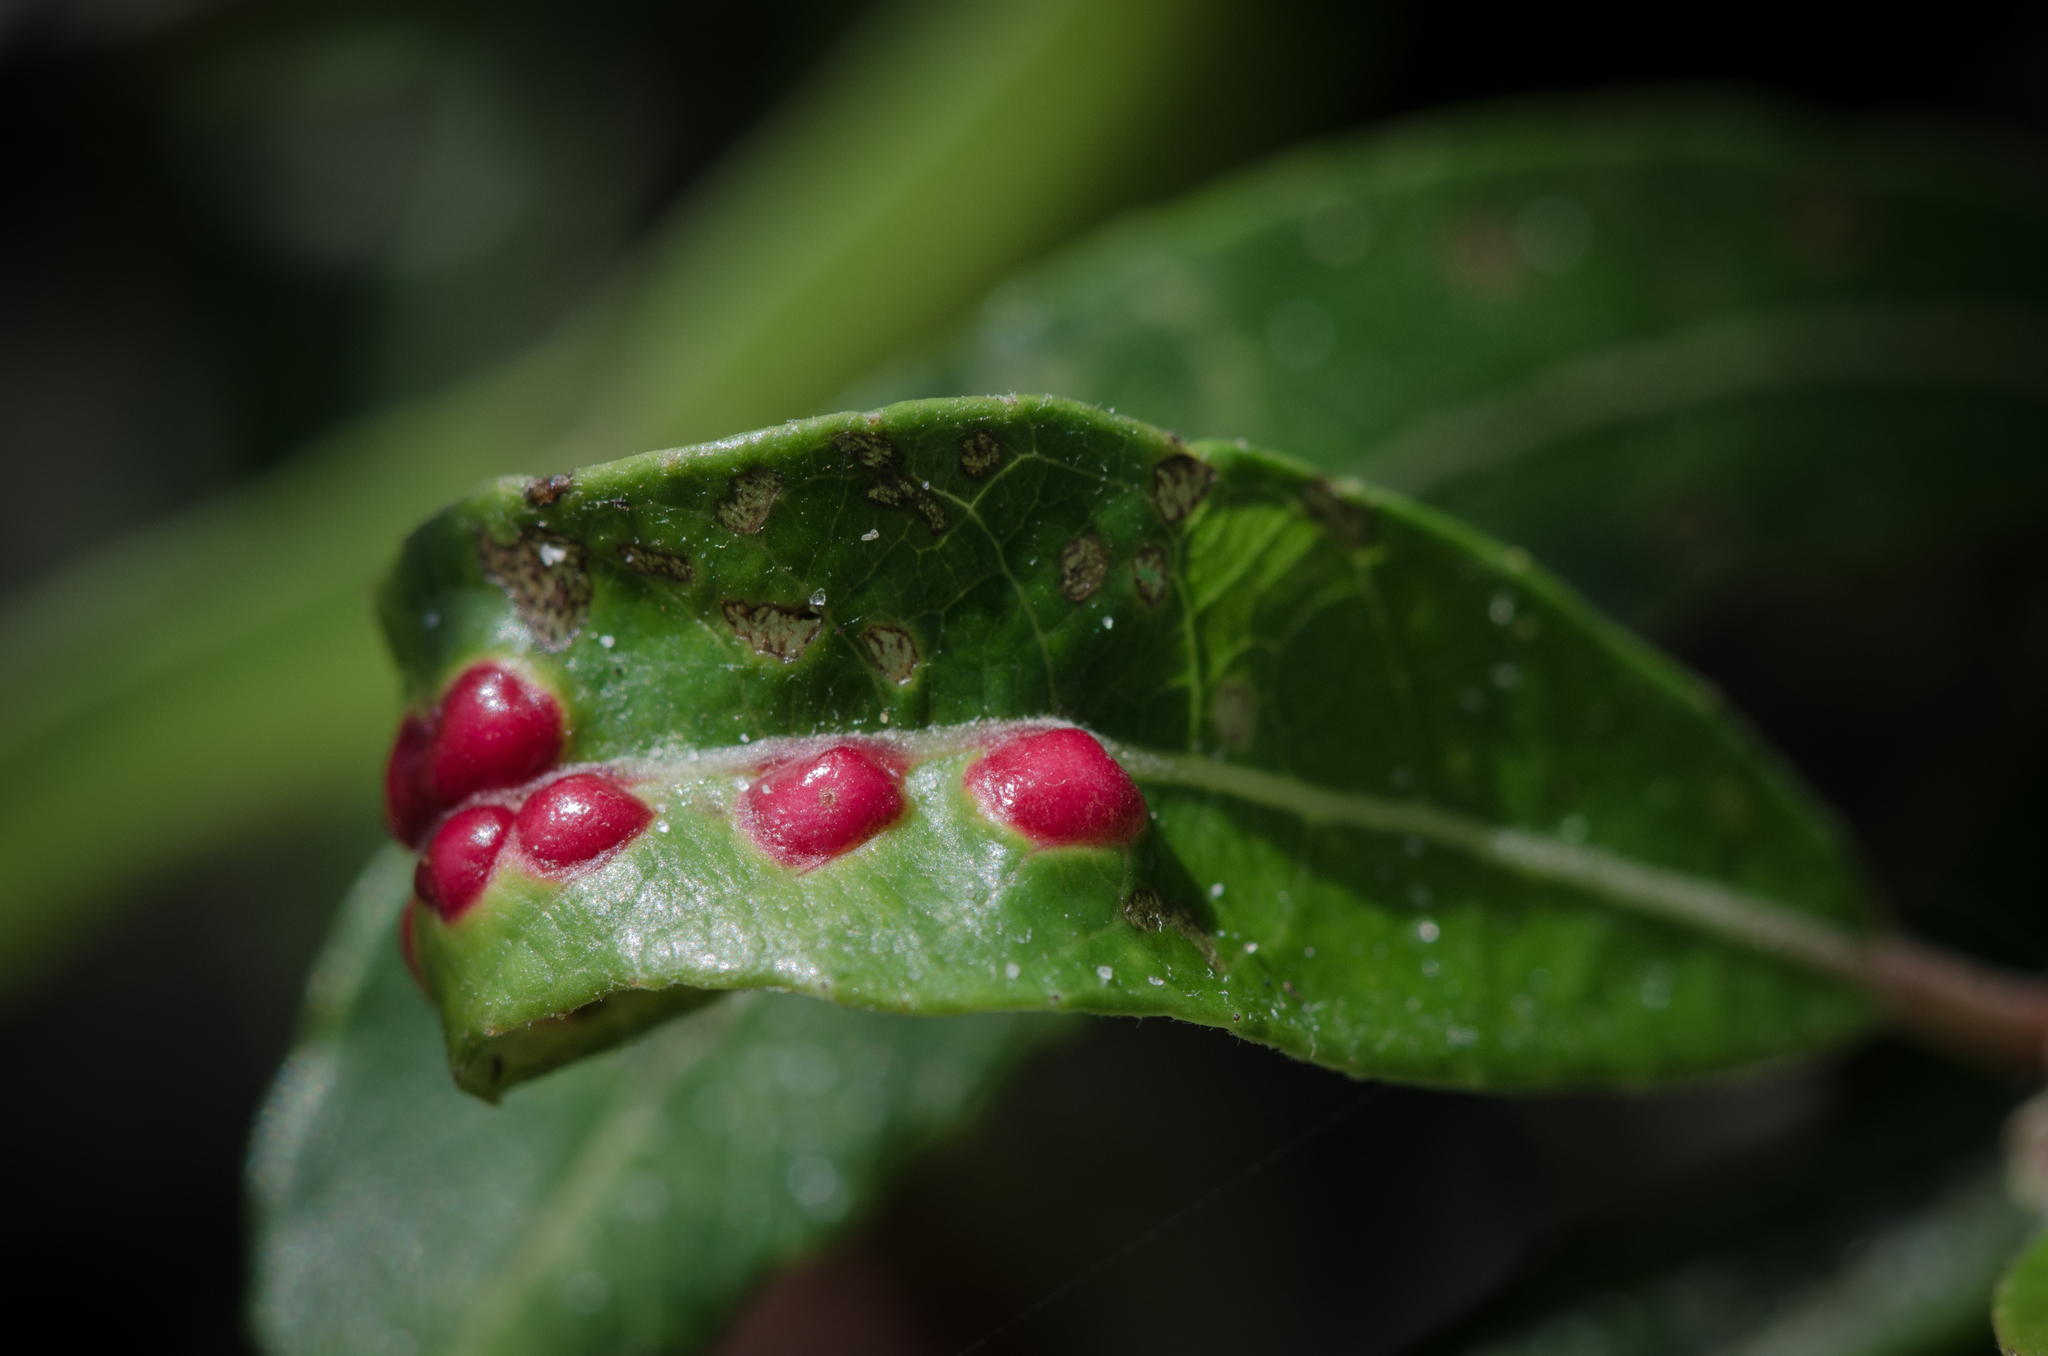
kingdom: Animalia
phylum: Arthropoda
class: Insecta
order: Hymenoptera
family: Tenthredinidae
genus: Euura
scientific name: Euura
